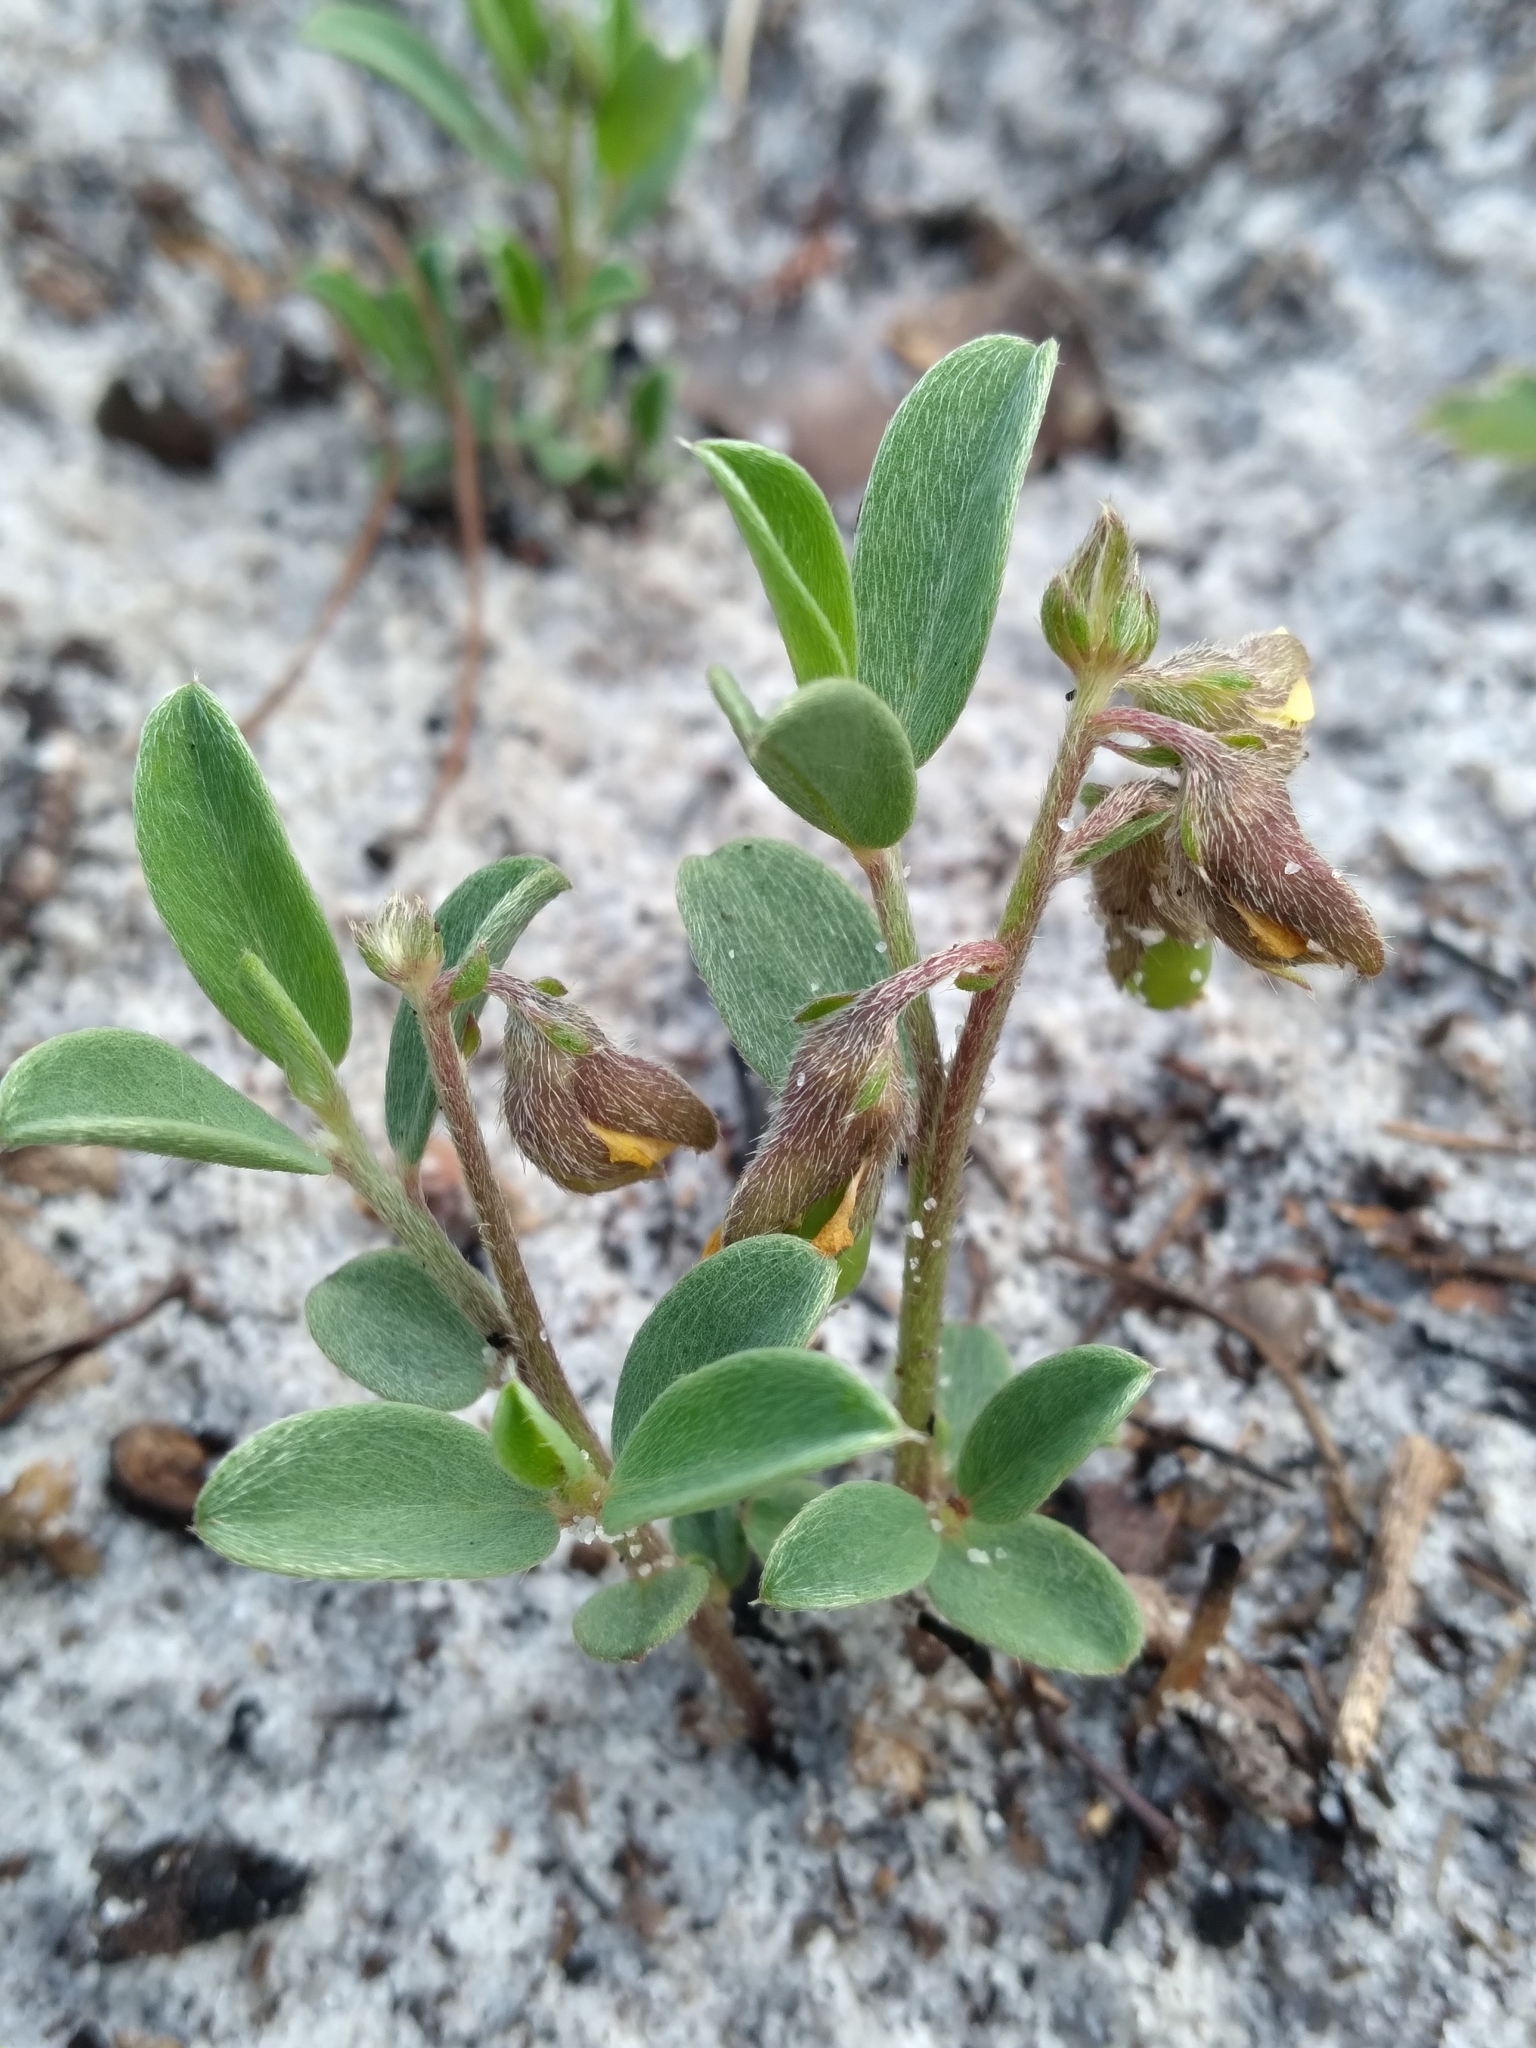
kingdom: Plantae
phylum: Tracheophyta
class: Magnoliopsida
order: Fabales
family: Fabaceae
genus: Crotalaria
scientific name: Crotalaria avonensis
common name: Avon park harebells
